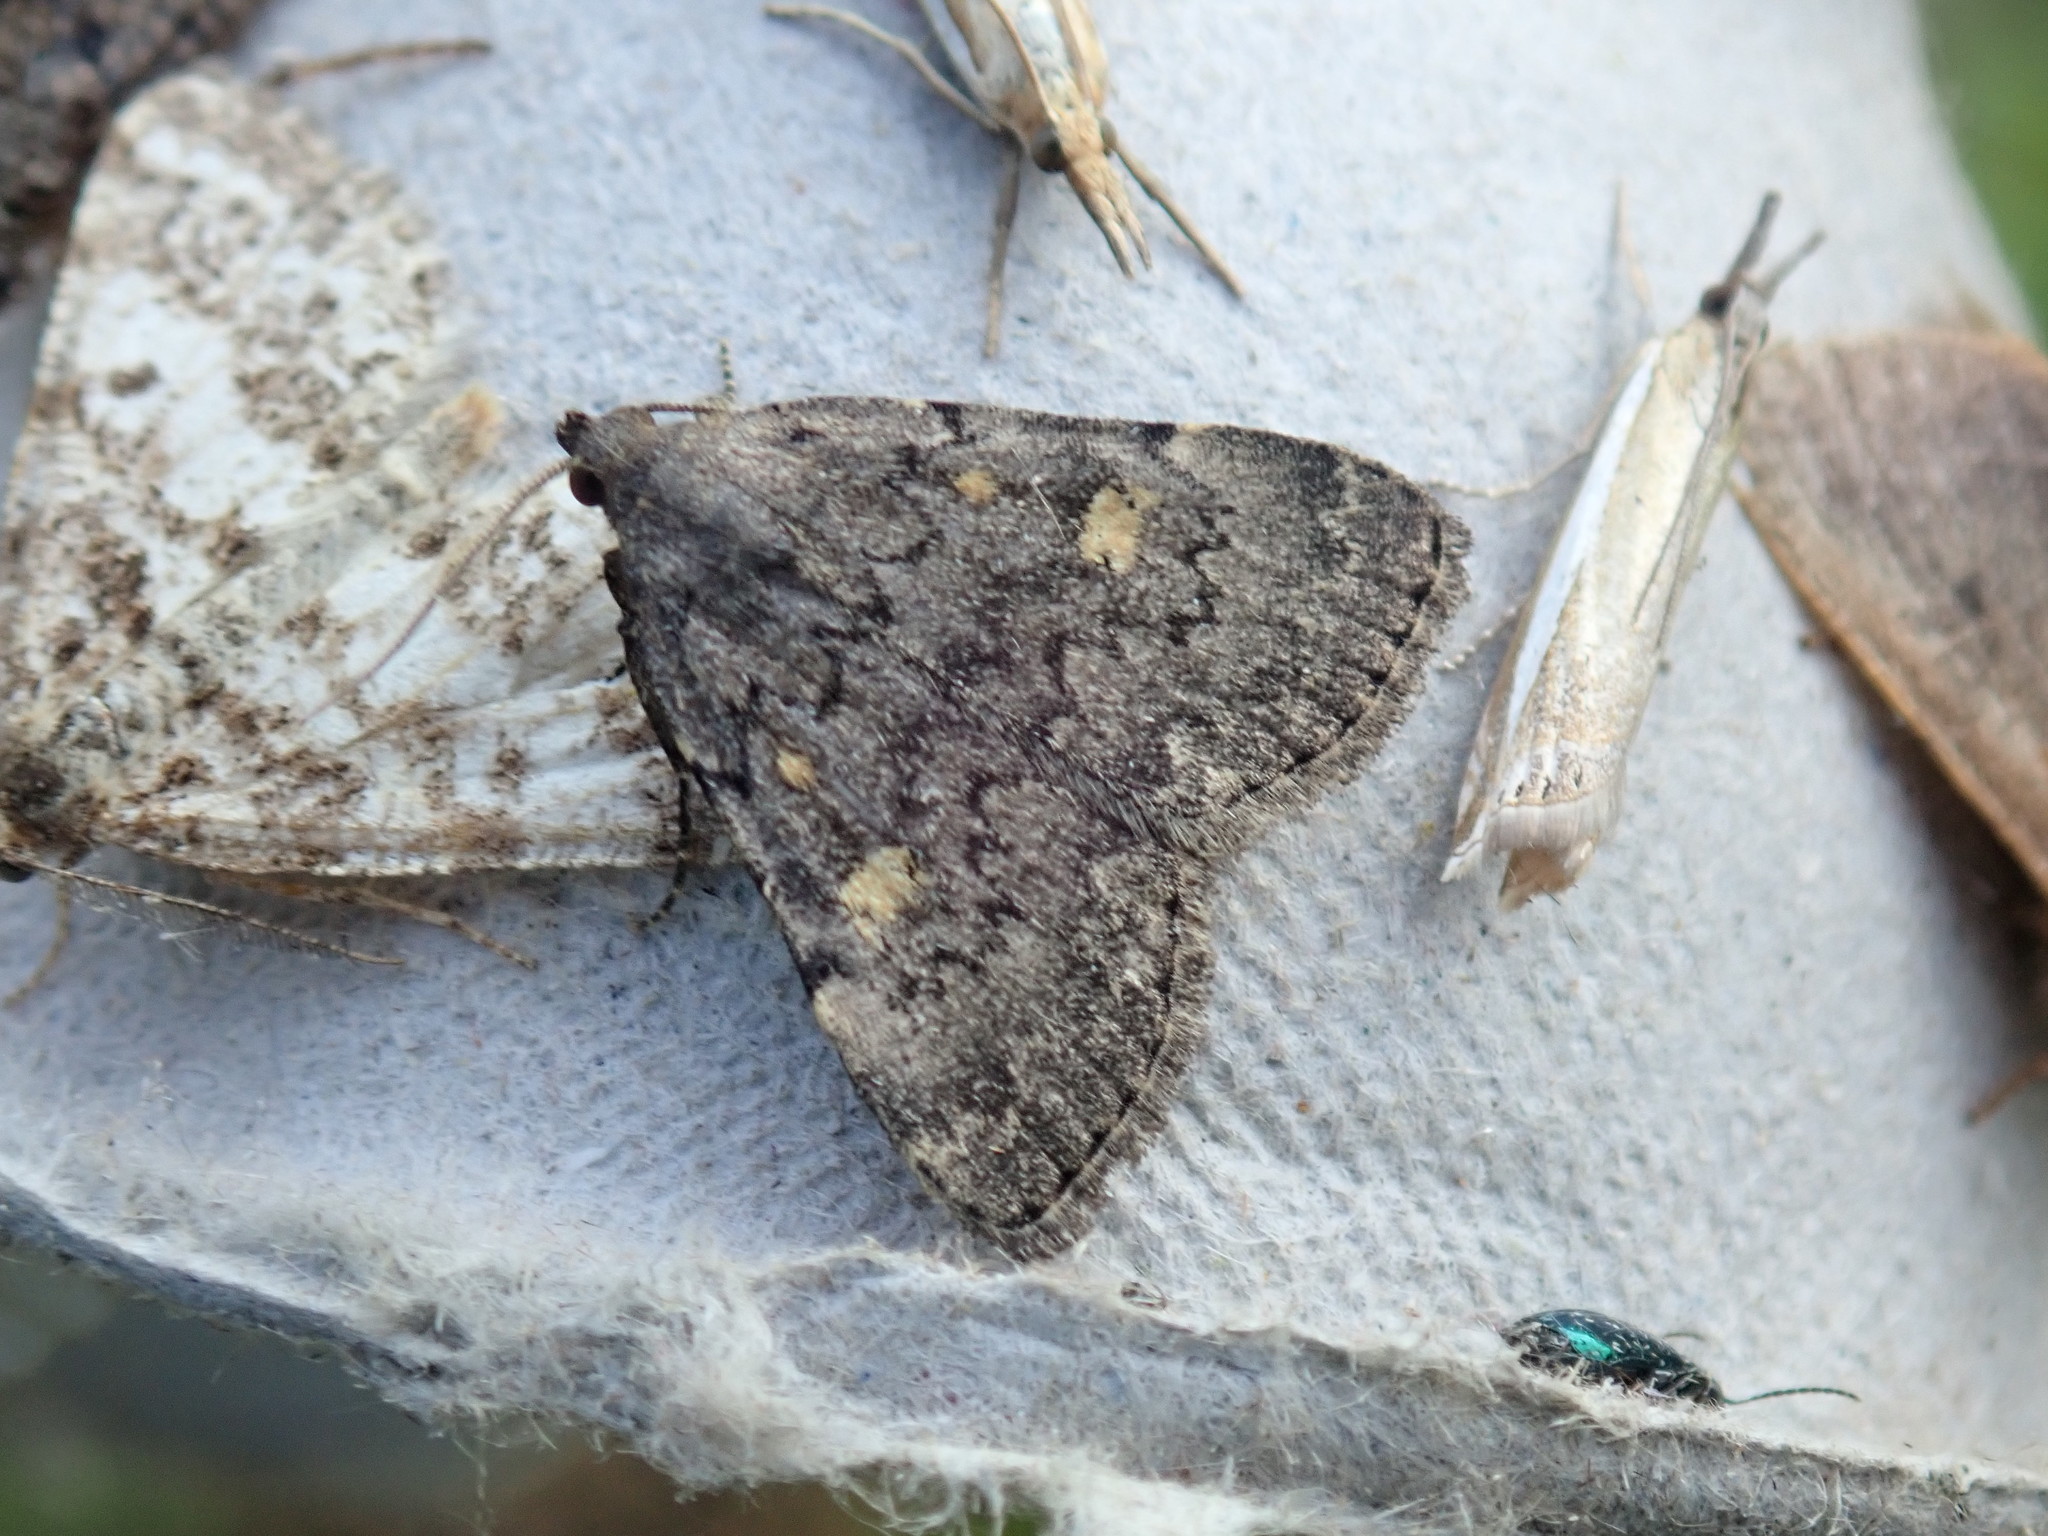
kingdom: Animalia
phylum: Arthropoda
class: Insecta
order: Lepidoptera
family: Erebidae
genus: Idia
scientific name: Idia aemula
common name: Common idia moth
